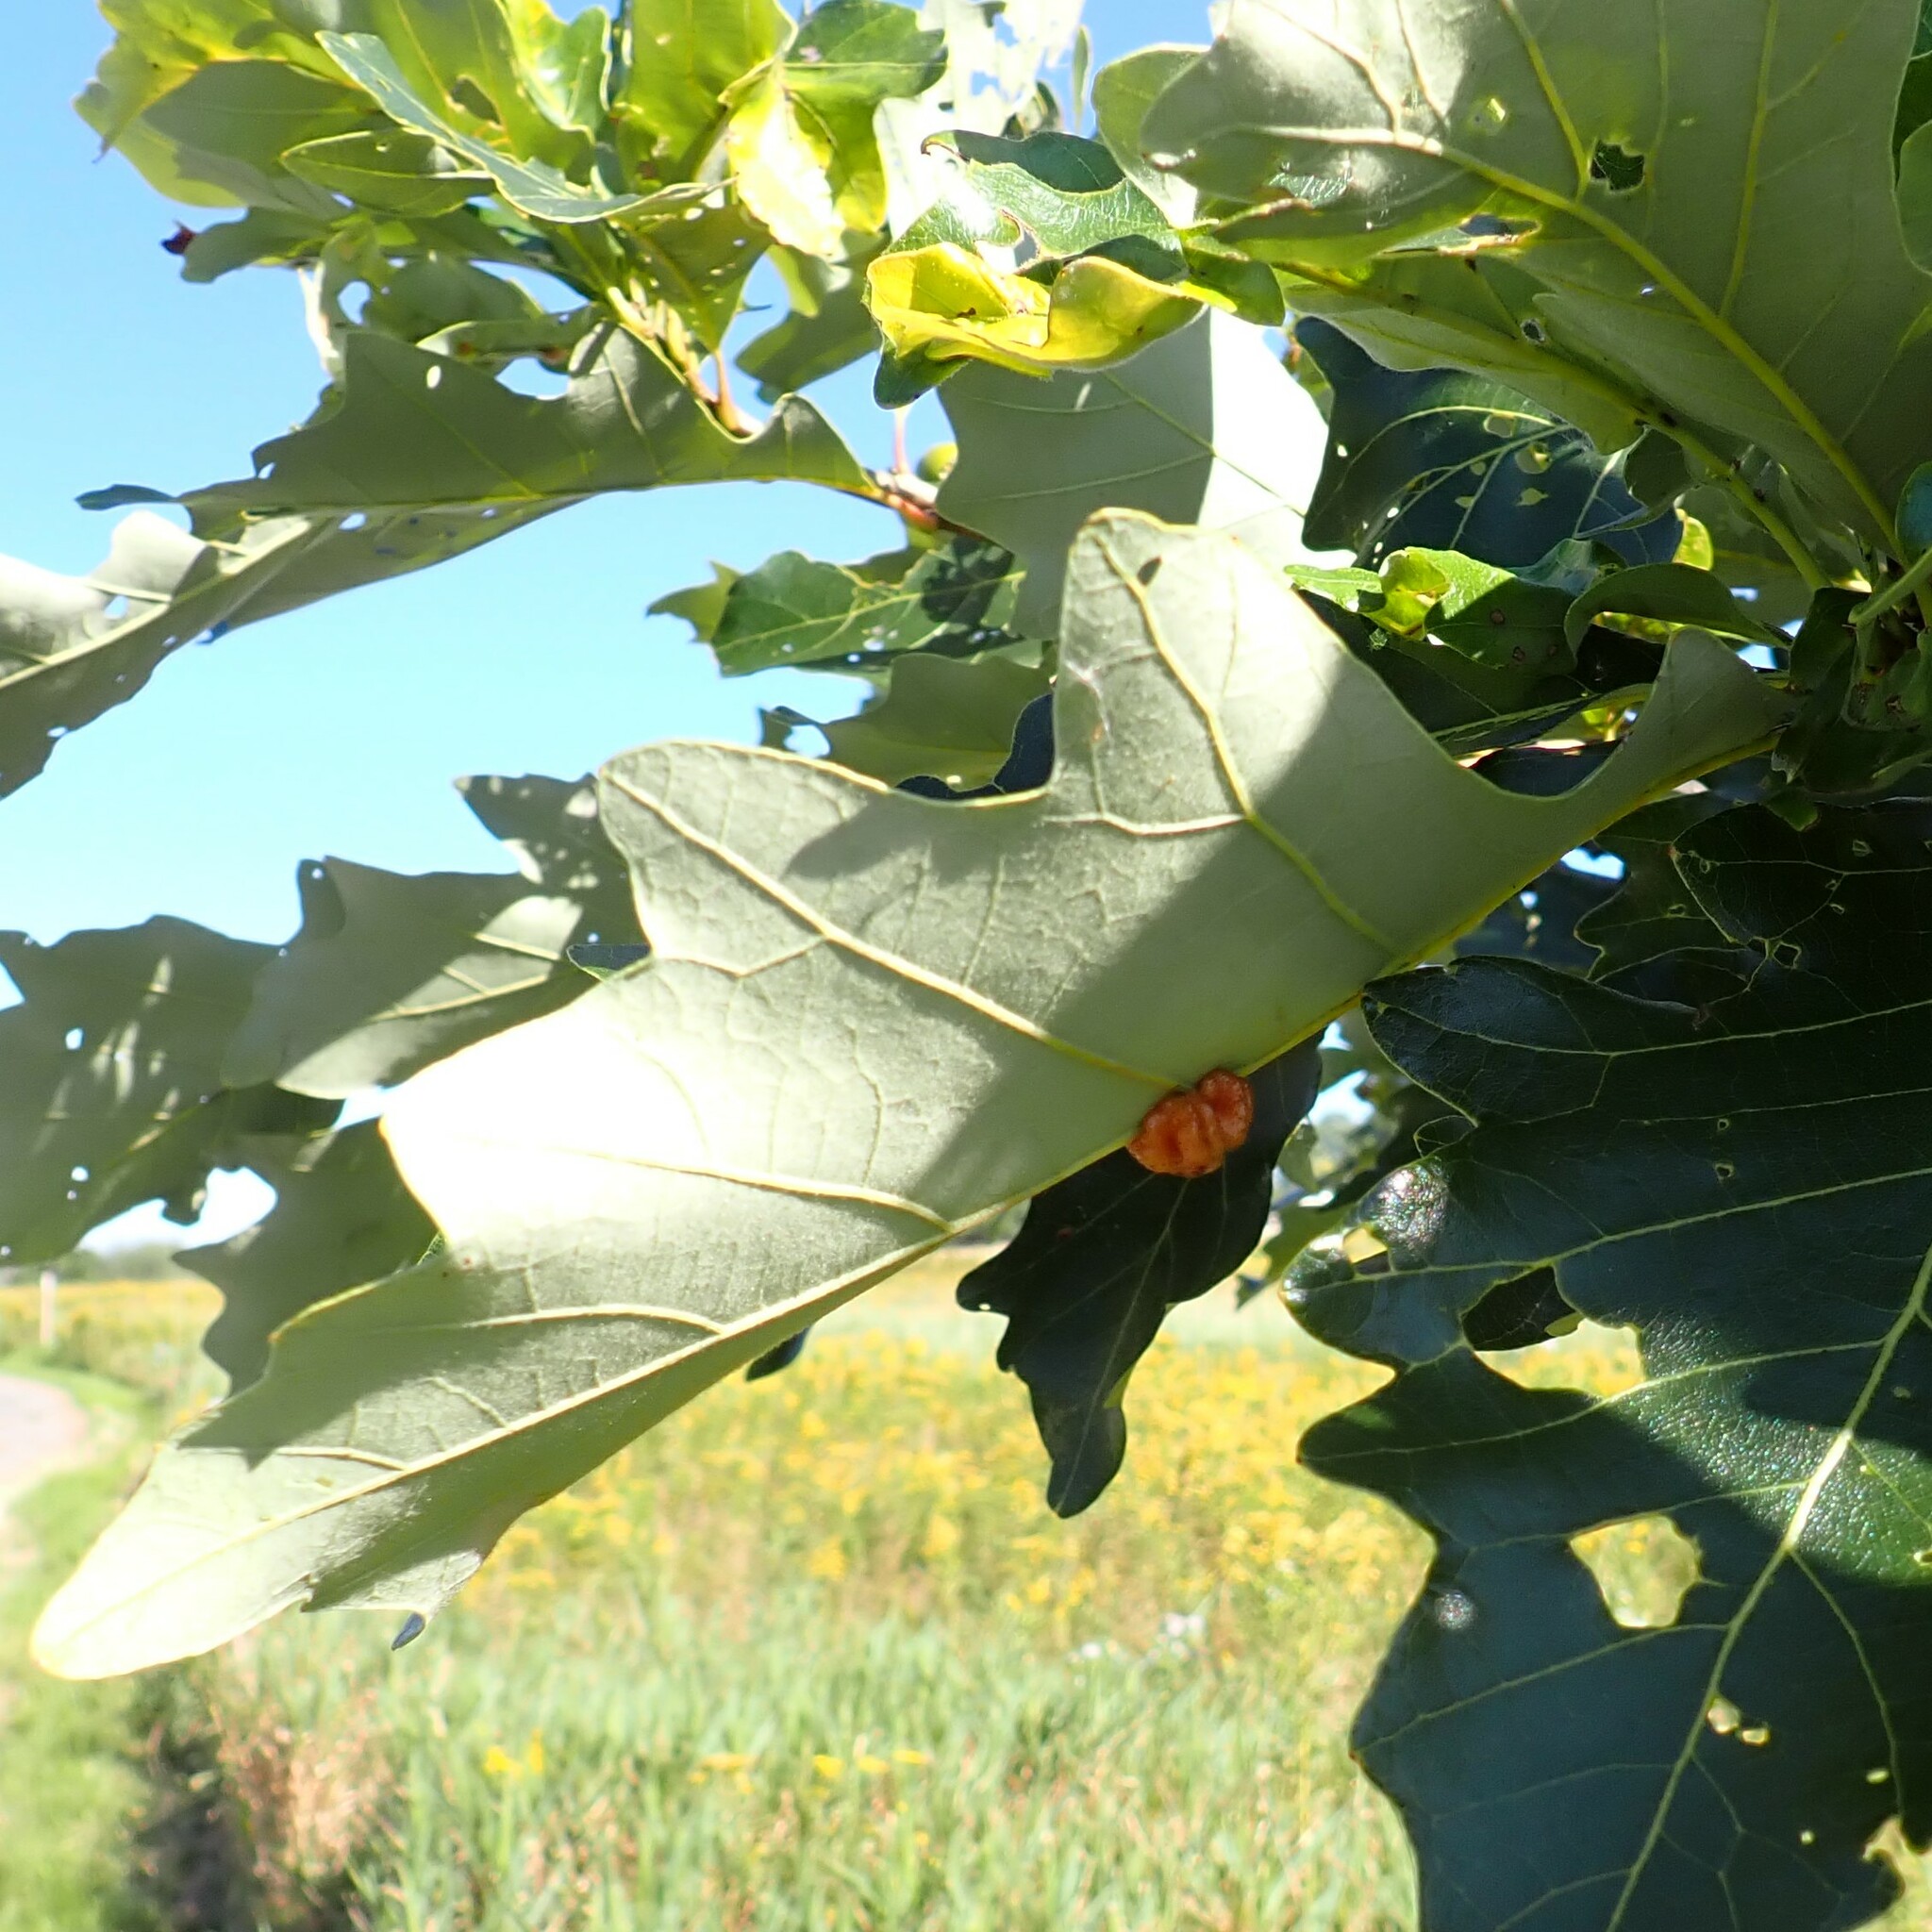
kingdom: Animalia
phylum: Arthropoda
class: Insecta
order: Hymenoptera
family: Cynipidae
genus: Andricus
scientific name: Andricus
